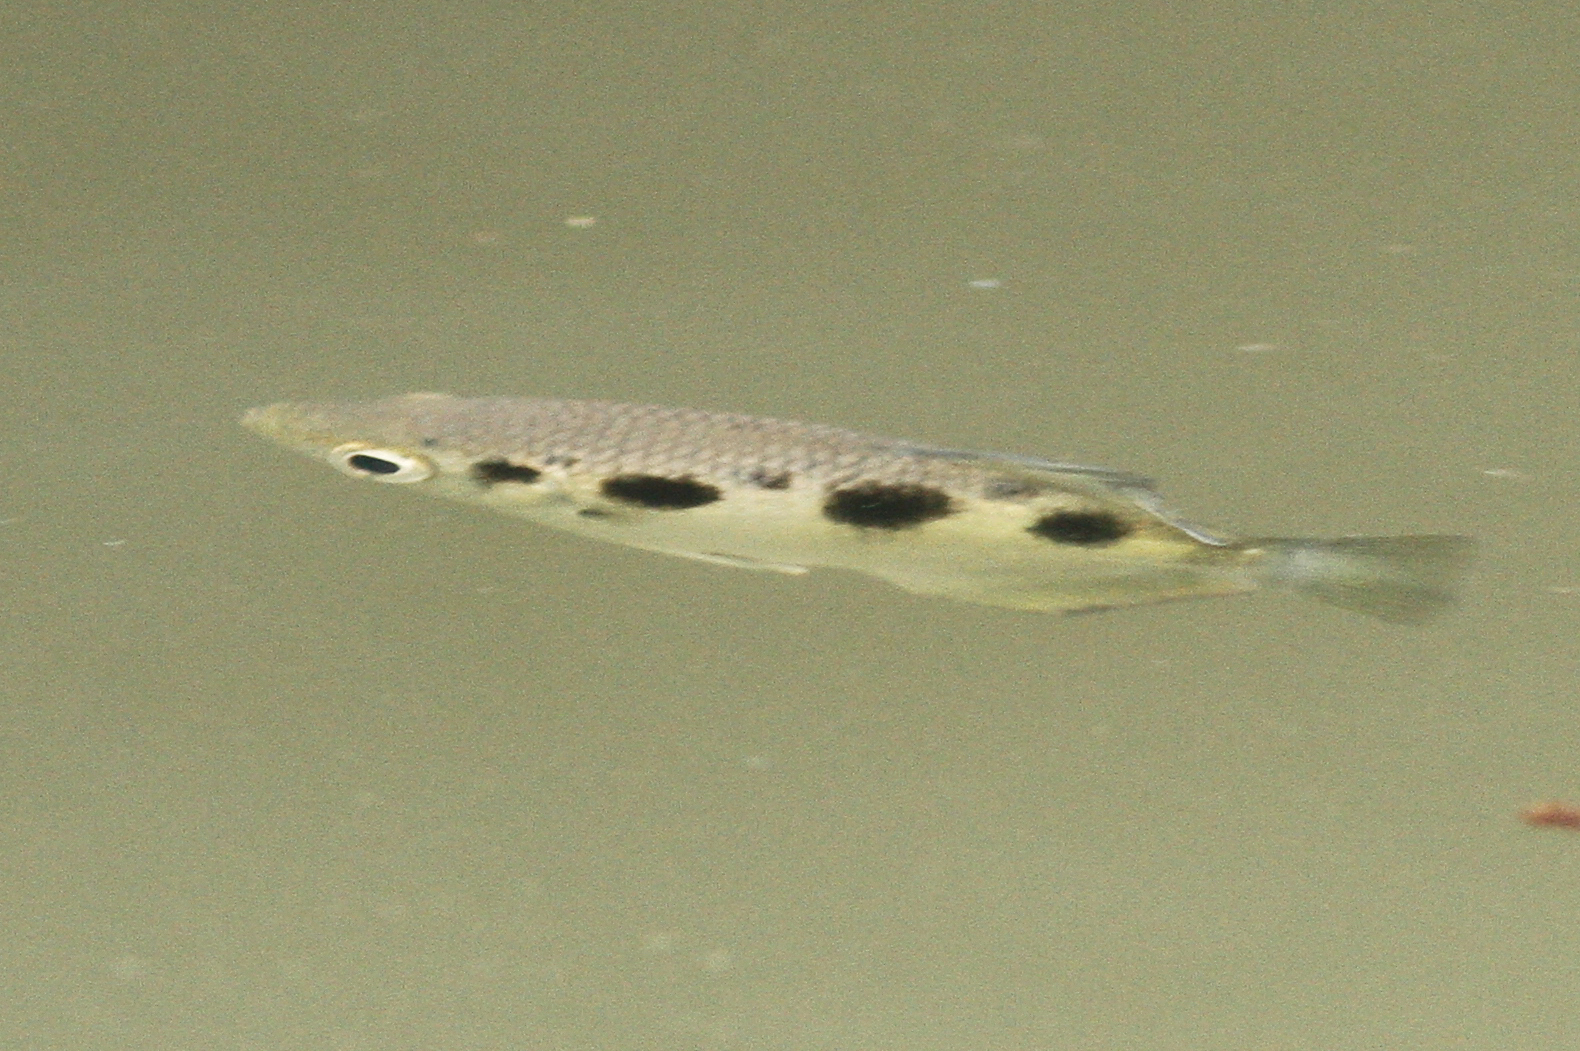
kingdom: Animalia
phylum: Chordata
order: Perciformes
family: Toxotidae
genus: Toxotes
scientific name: Toxotes chatareus
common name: Spotted archerfish
